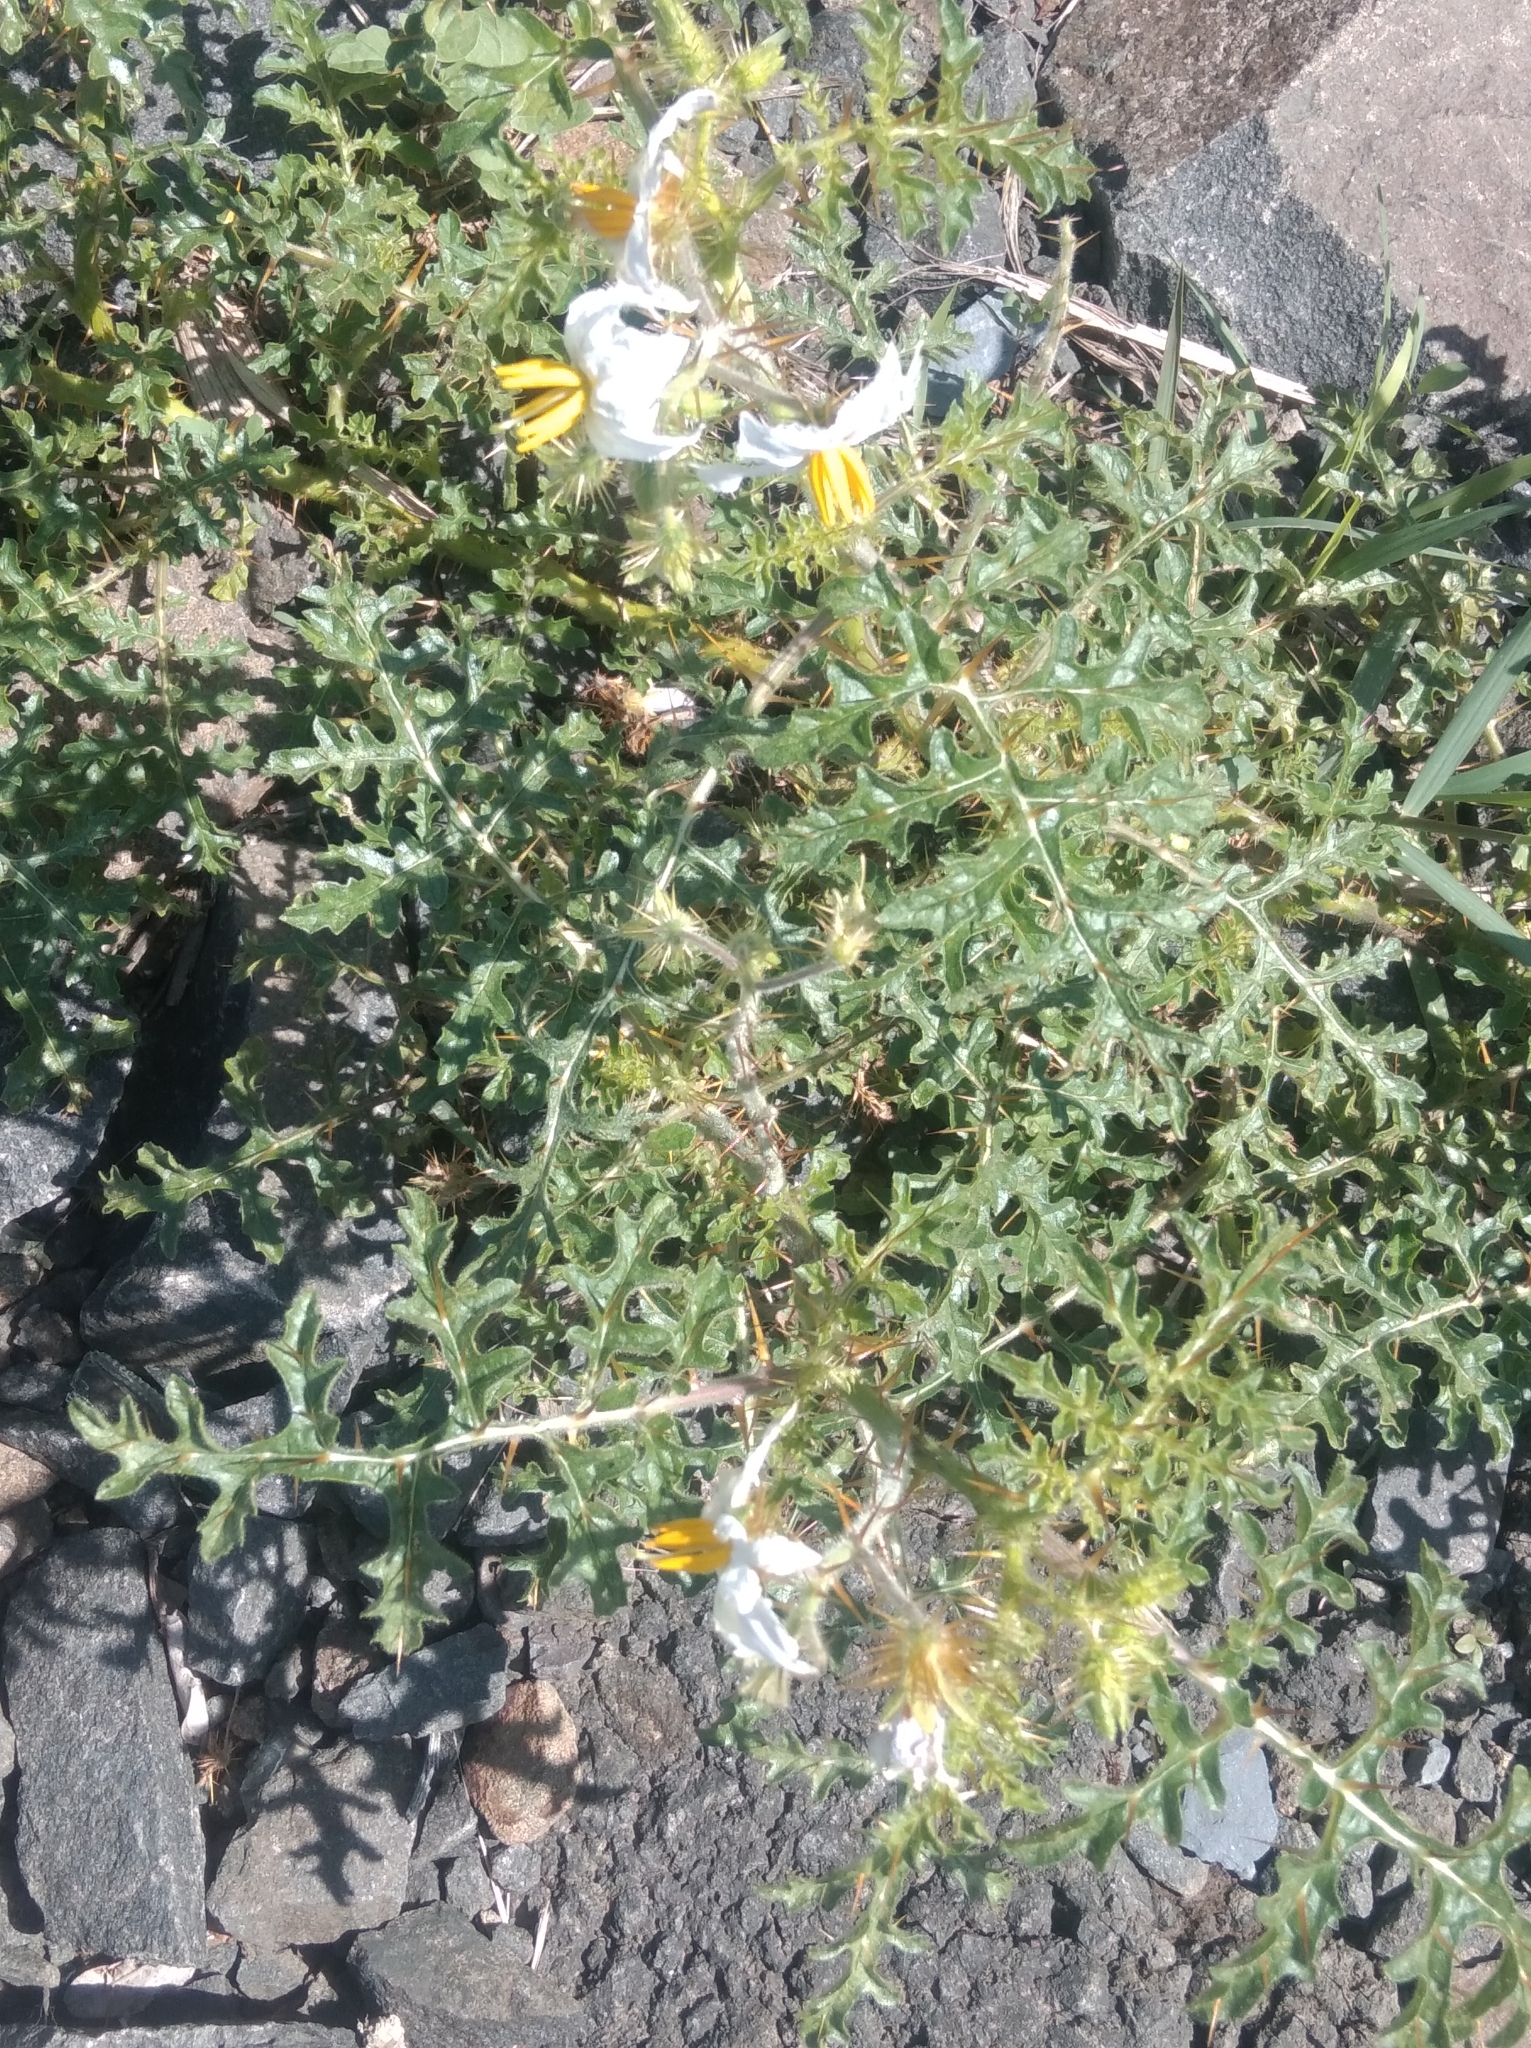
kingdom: Plantae
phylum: Tracheophyta
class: Magnoliopsida
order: Solanales
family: Solanaceae
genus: Solanum
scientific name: Solanum sisymbriifolium
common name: Red buffalo-bur
